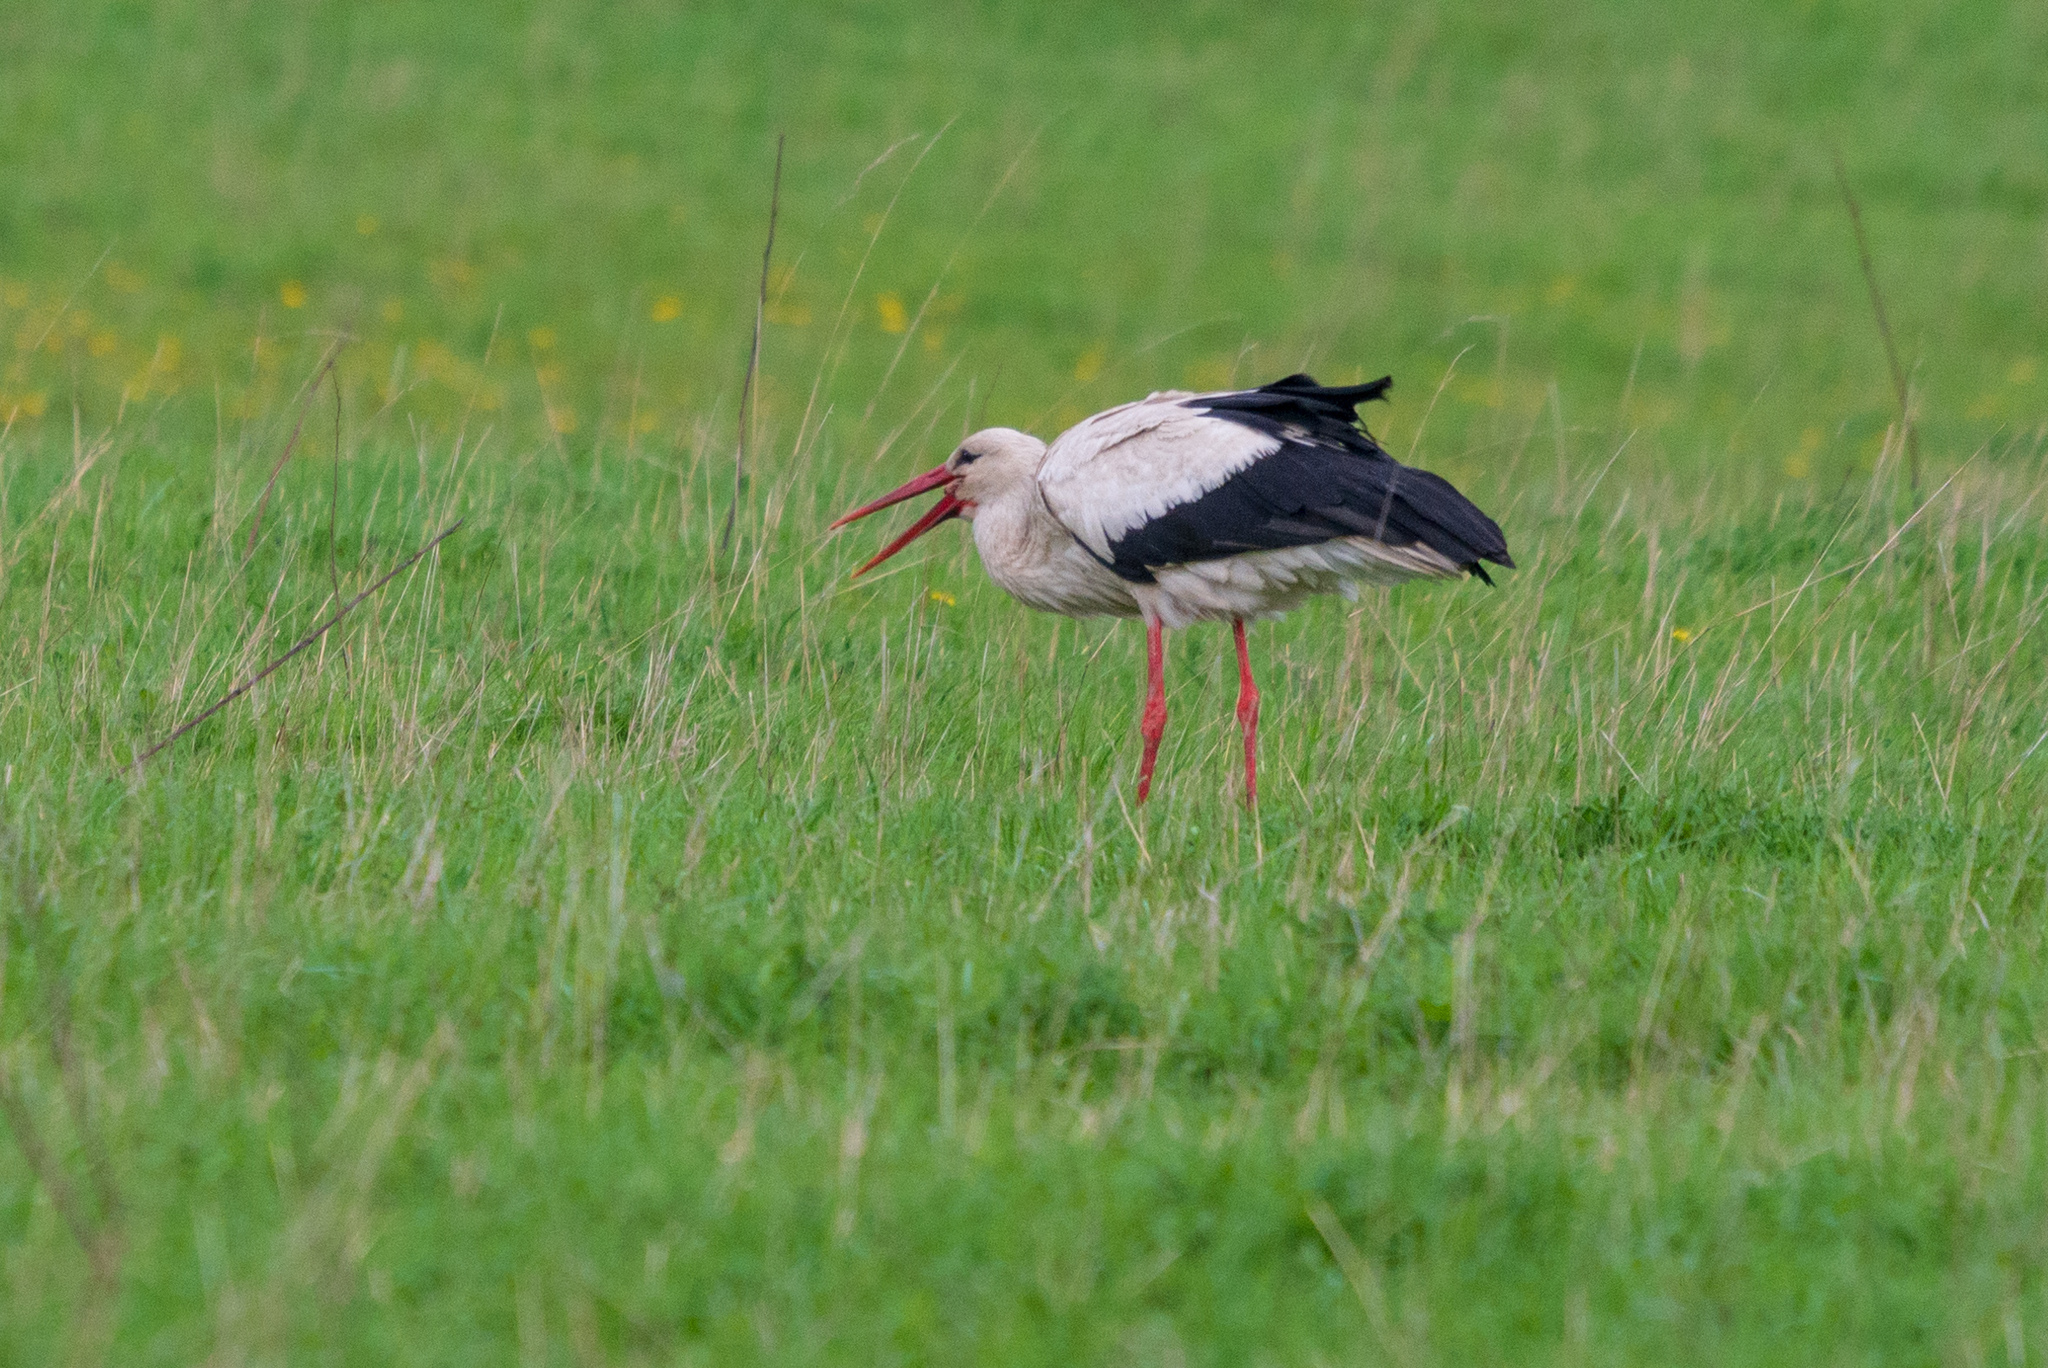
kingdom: Animalia
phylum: Chordata
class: Aves
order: Ciconiiformes
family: Ciconiidae
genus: Ciconia
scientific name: Ciconia ciconia
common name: White stork
